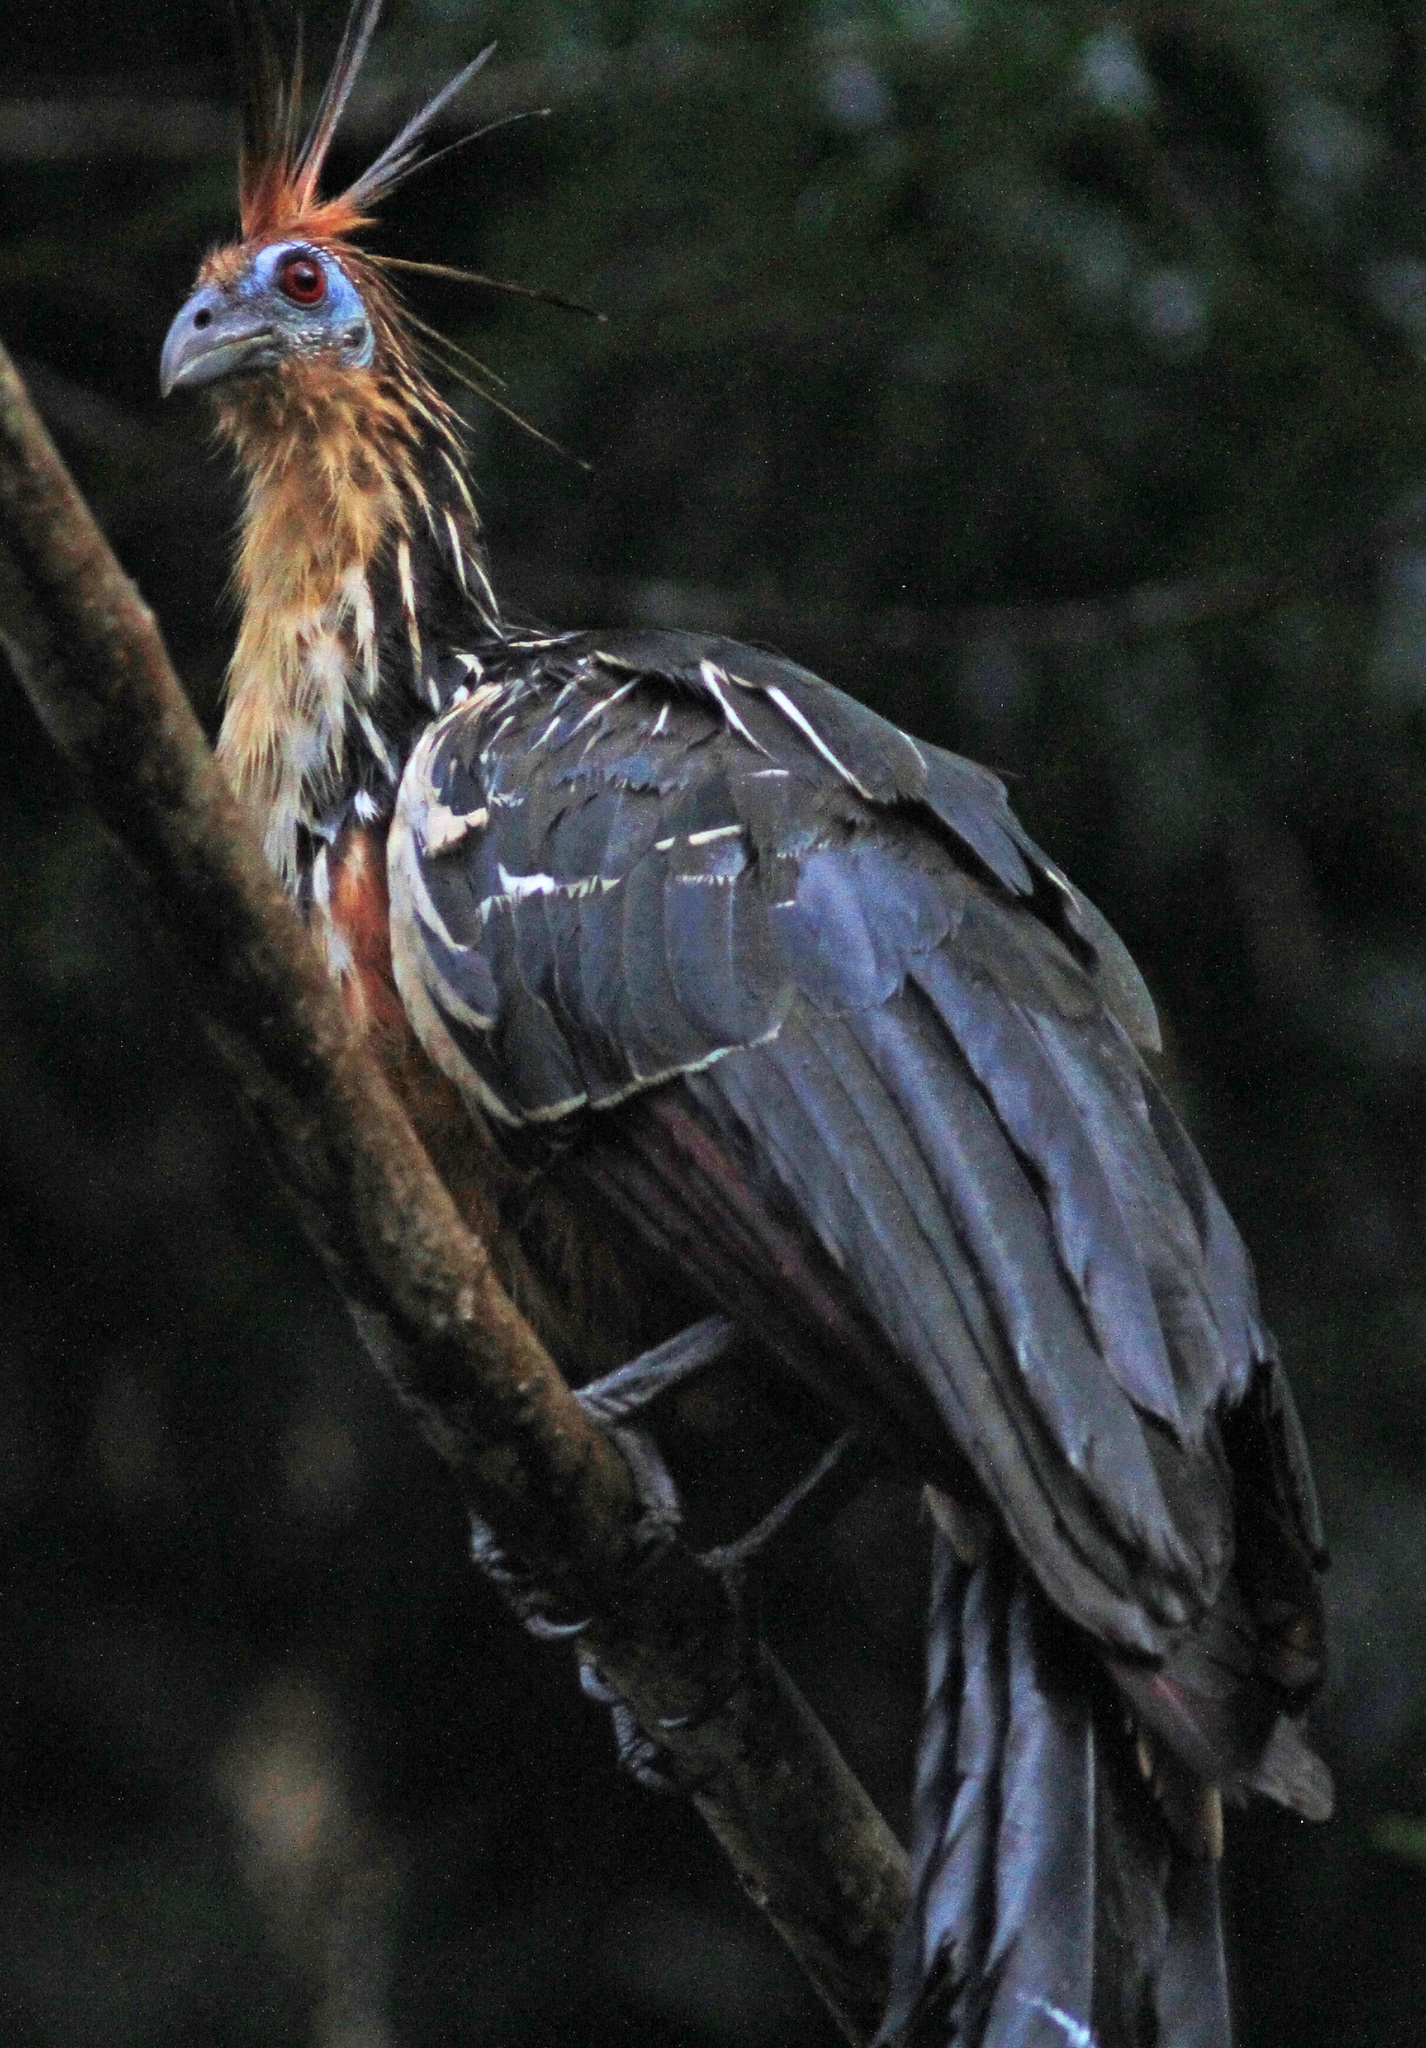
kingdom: Animalia
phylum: Chordata
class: Aves
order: Opisthocomiformes
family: Opisthocomidae
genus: Opisthocomus
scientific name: Opisthocomus hoazin
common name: Hoatzin
